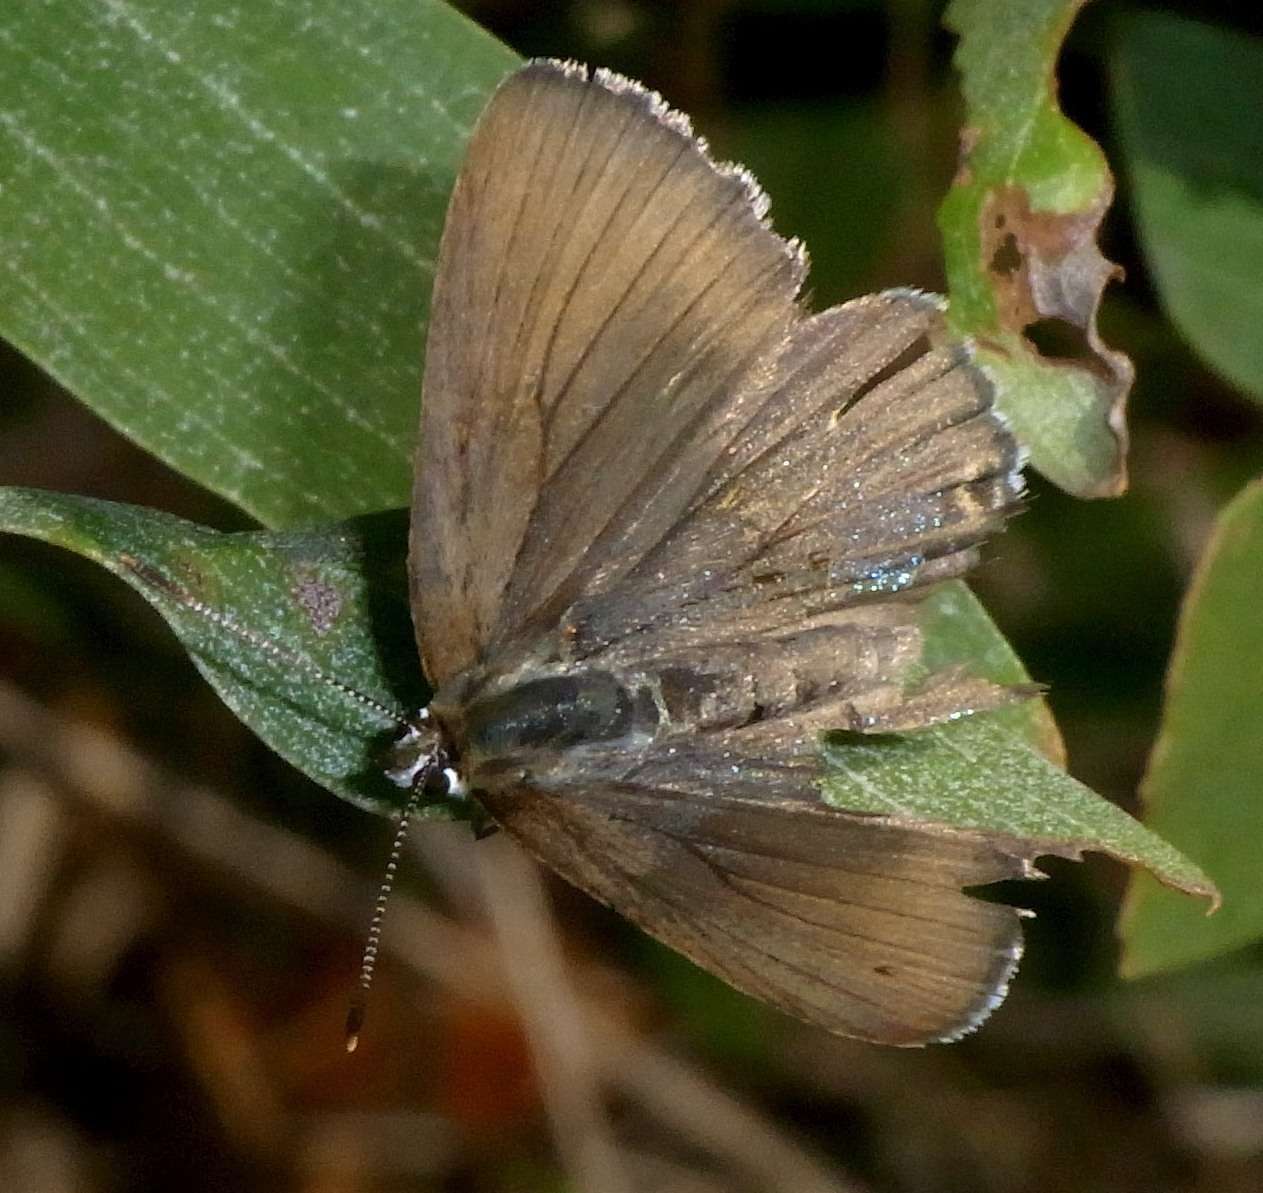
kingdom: Animalia
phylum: Arthropoda
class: Insecta
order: Lepidoptera
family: Lycaenidae
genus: Jalmenus
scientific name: Jalmenus icilius
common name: Amethyst hairstreak
